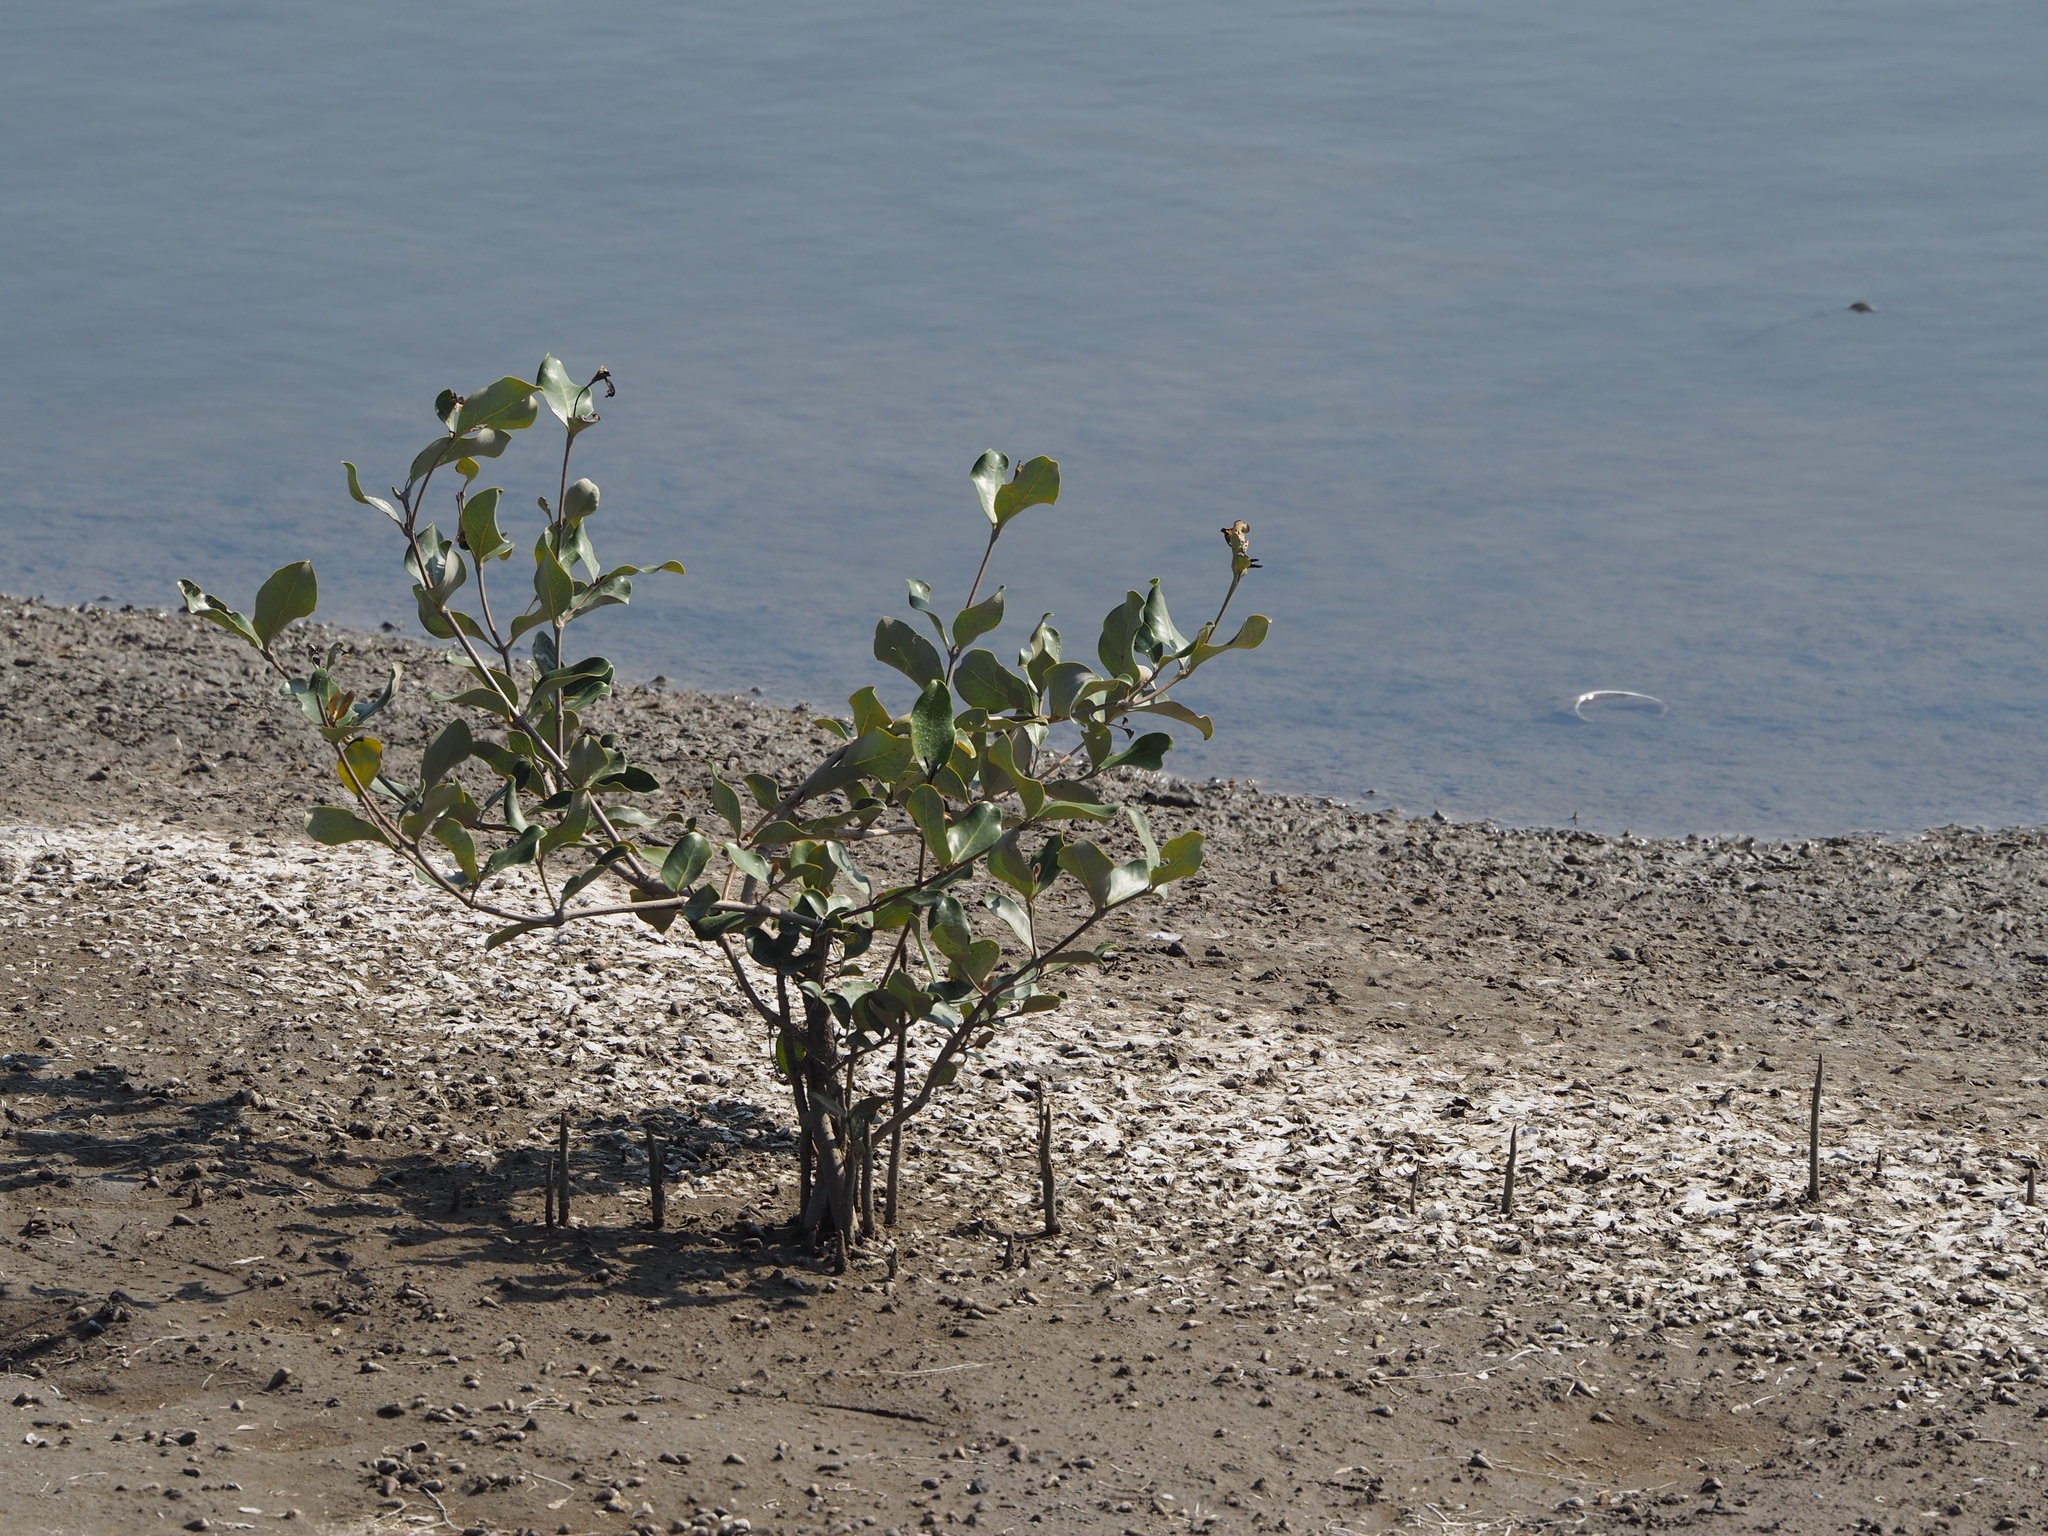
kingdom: Plantae
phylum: Tracheophyta
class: Magnoliopsida
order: Lamiales
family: Acanthaceae
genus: Avicennia
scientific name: Avicennia marina
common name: Gray mangrove
